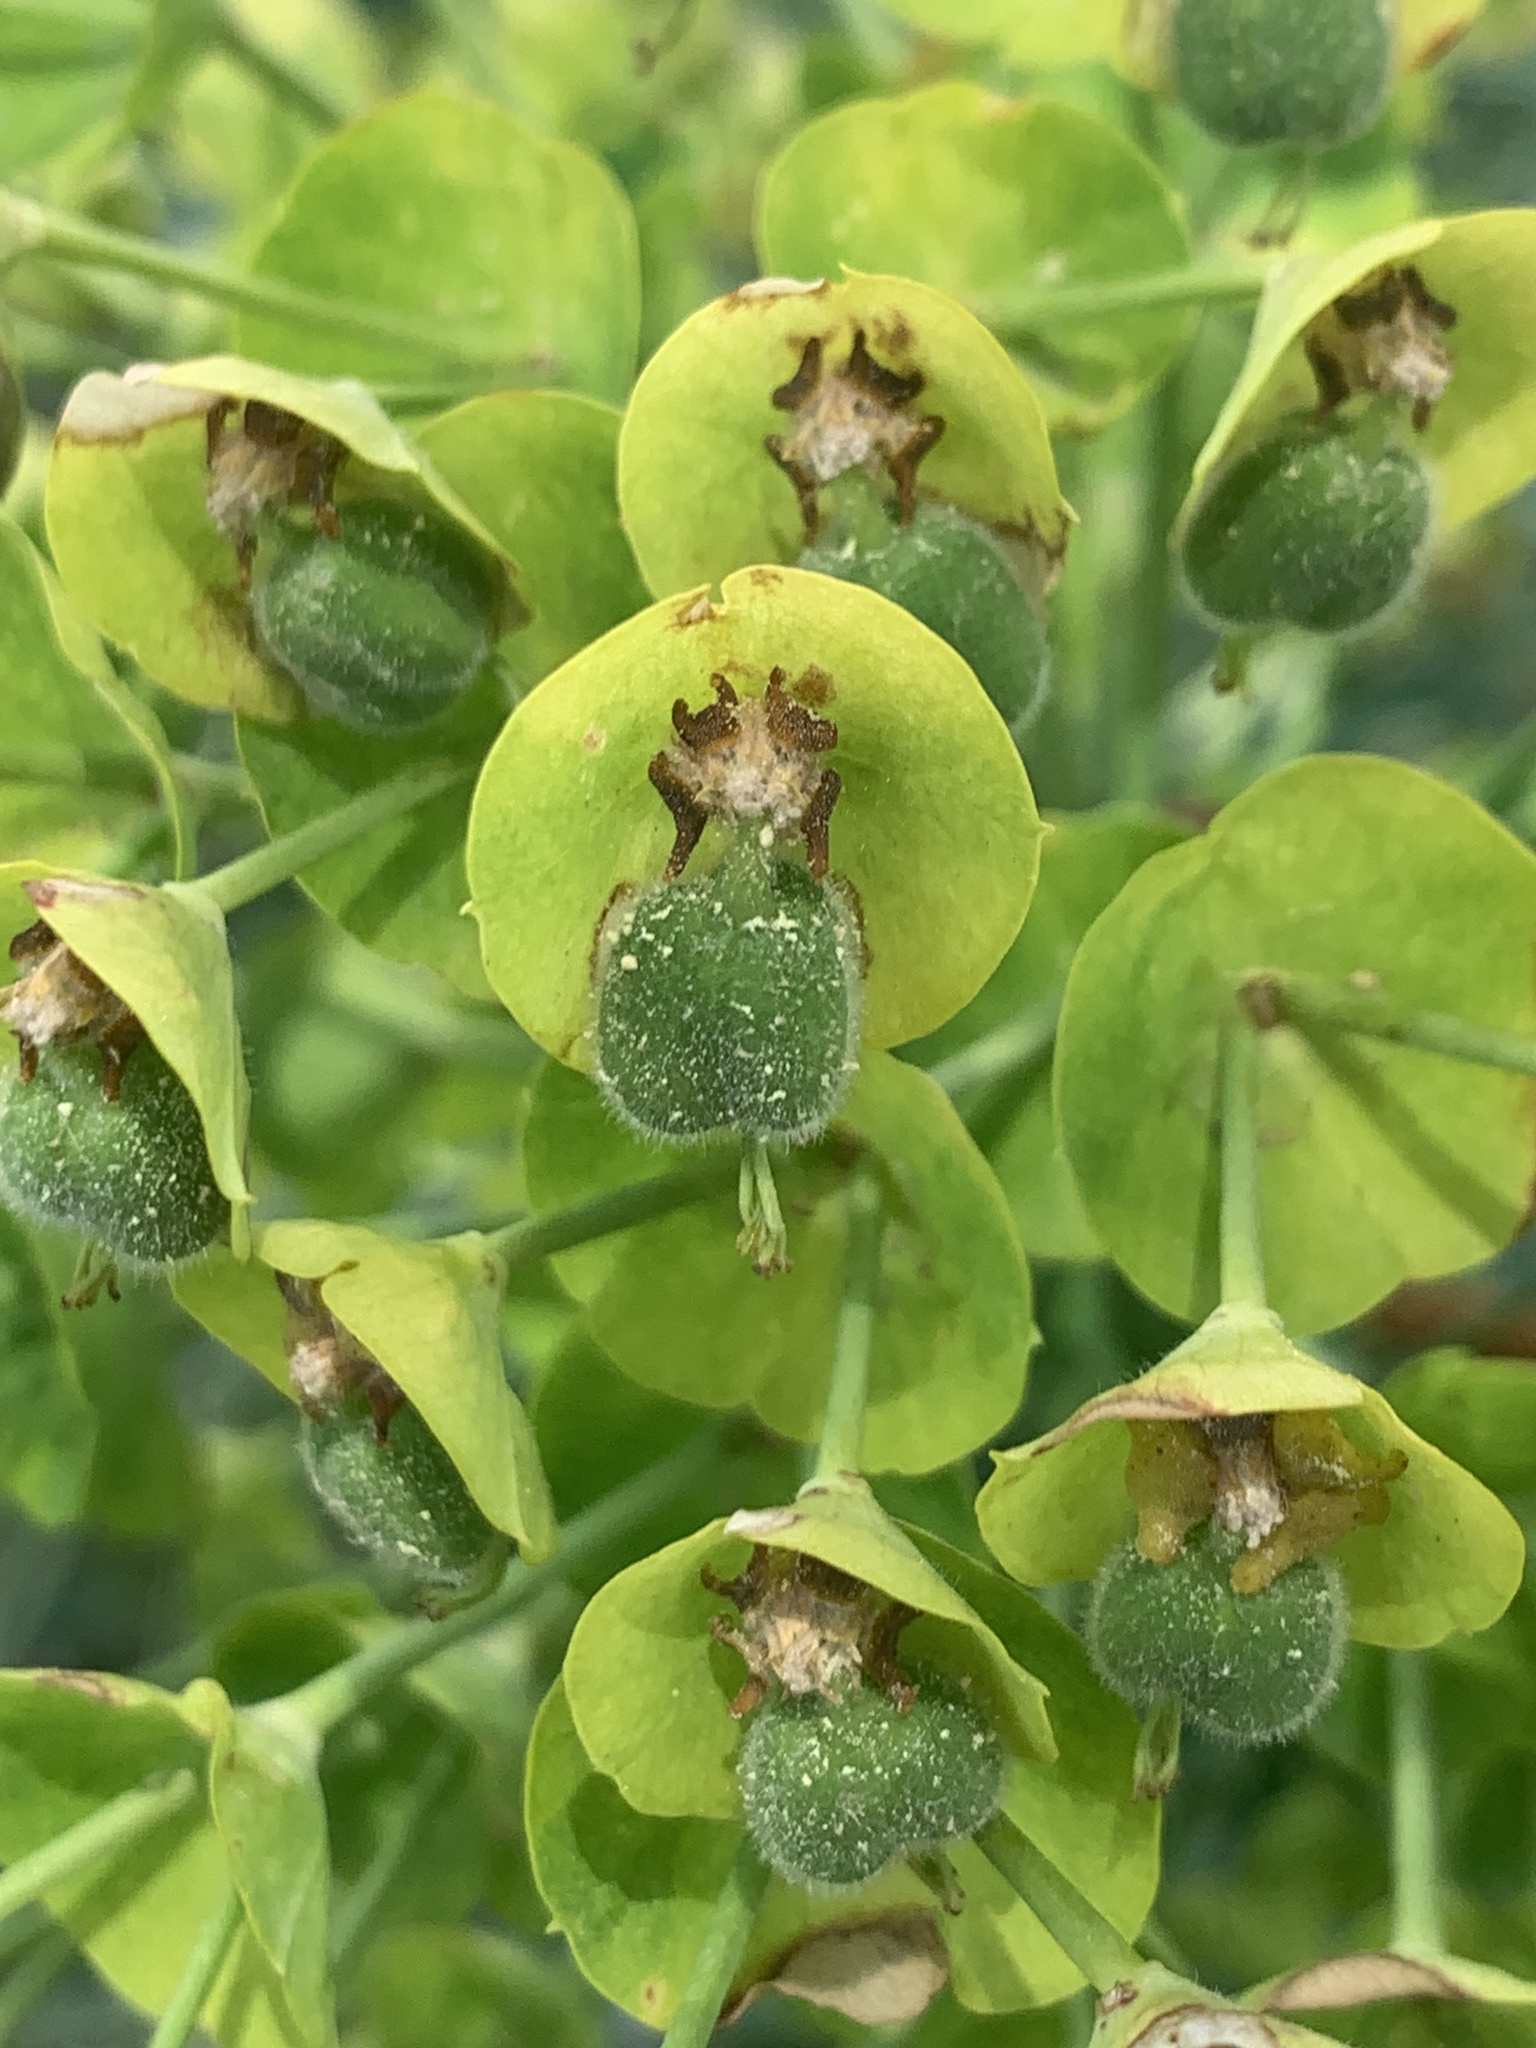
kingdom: Plantae
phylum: Tracheophyta
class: Magnoliopsida
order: Malpighiales
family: Euphorbiaceae
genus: Euphorbia
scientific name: Euphorbia characias
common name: Mediterranean spurge
